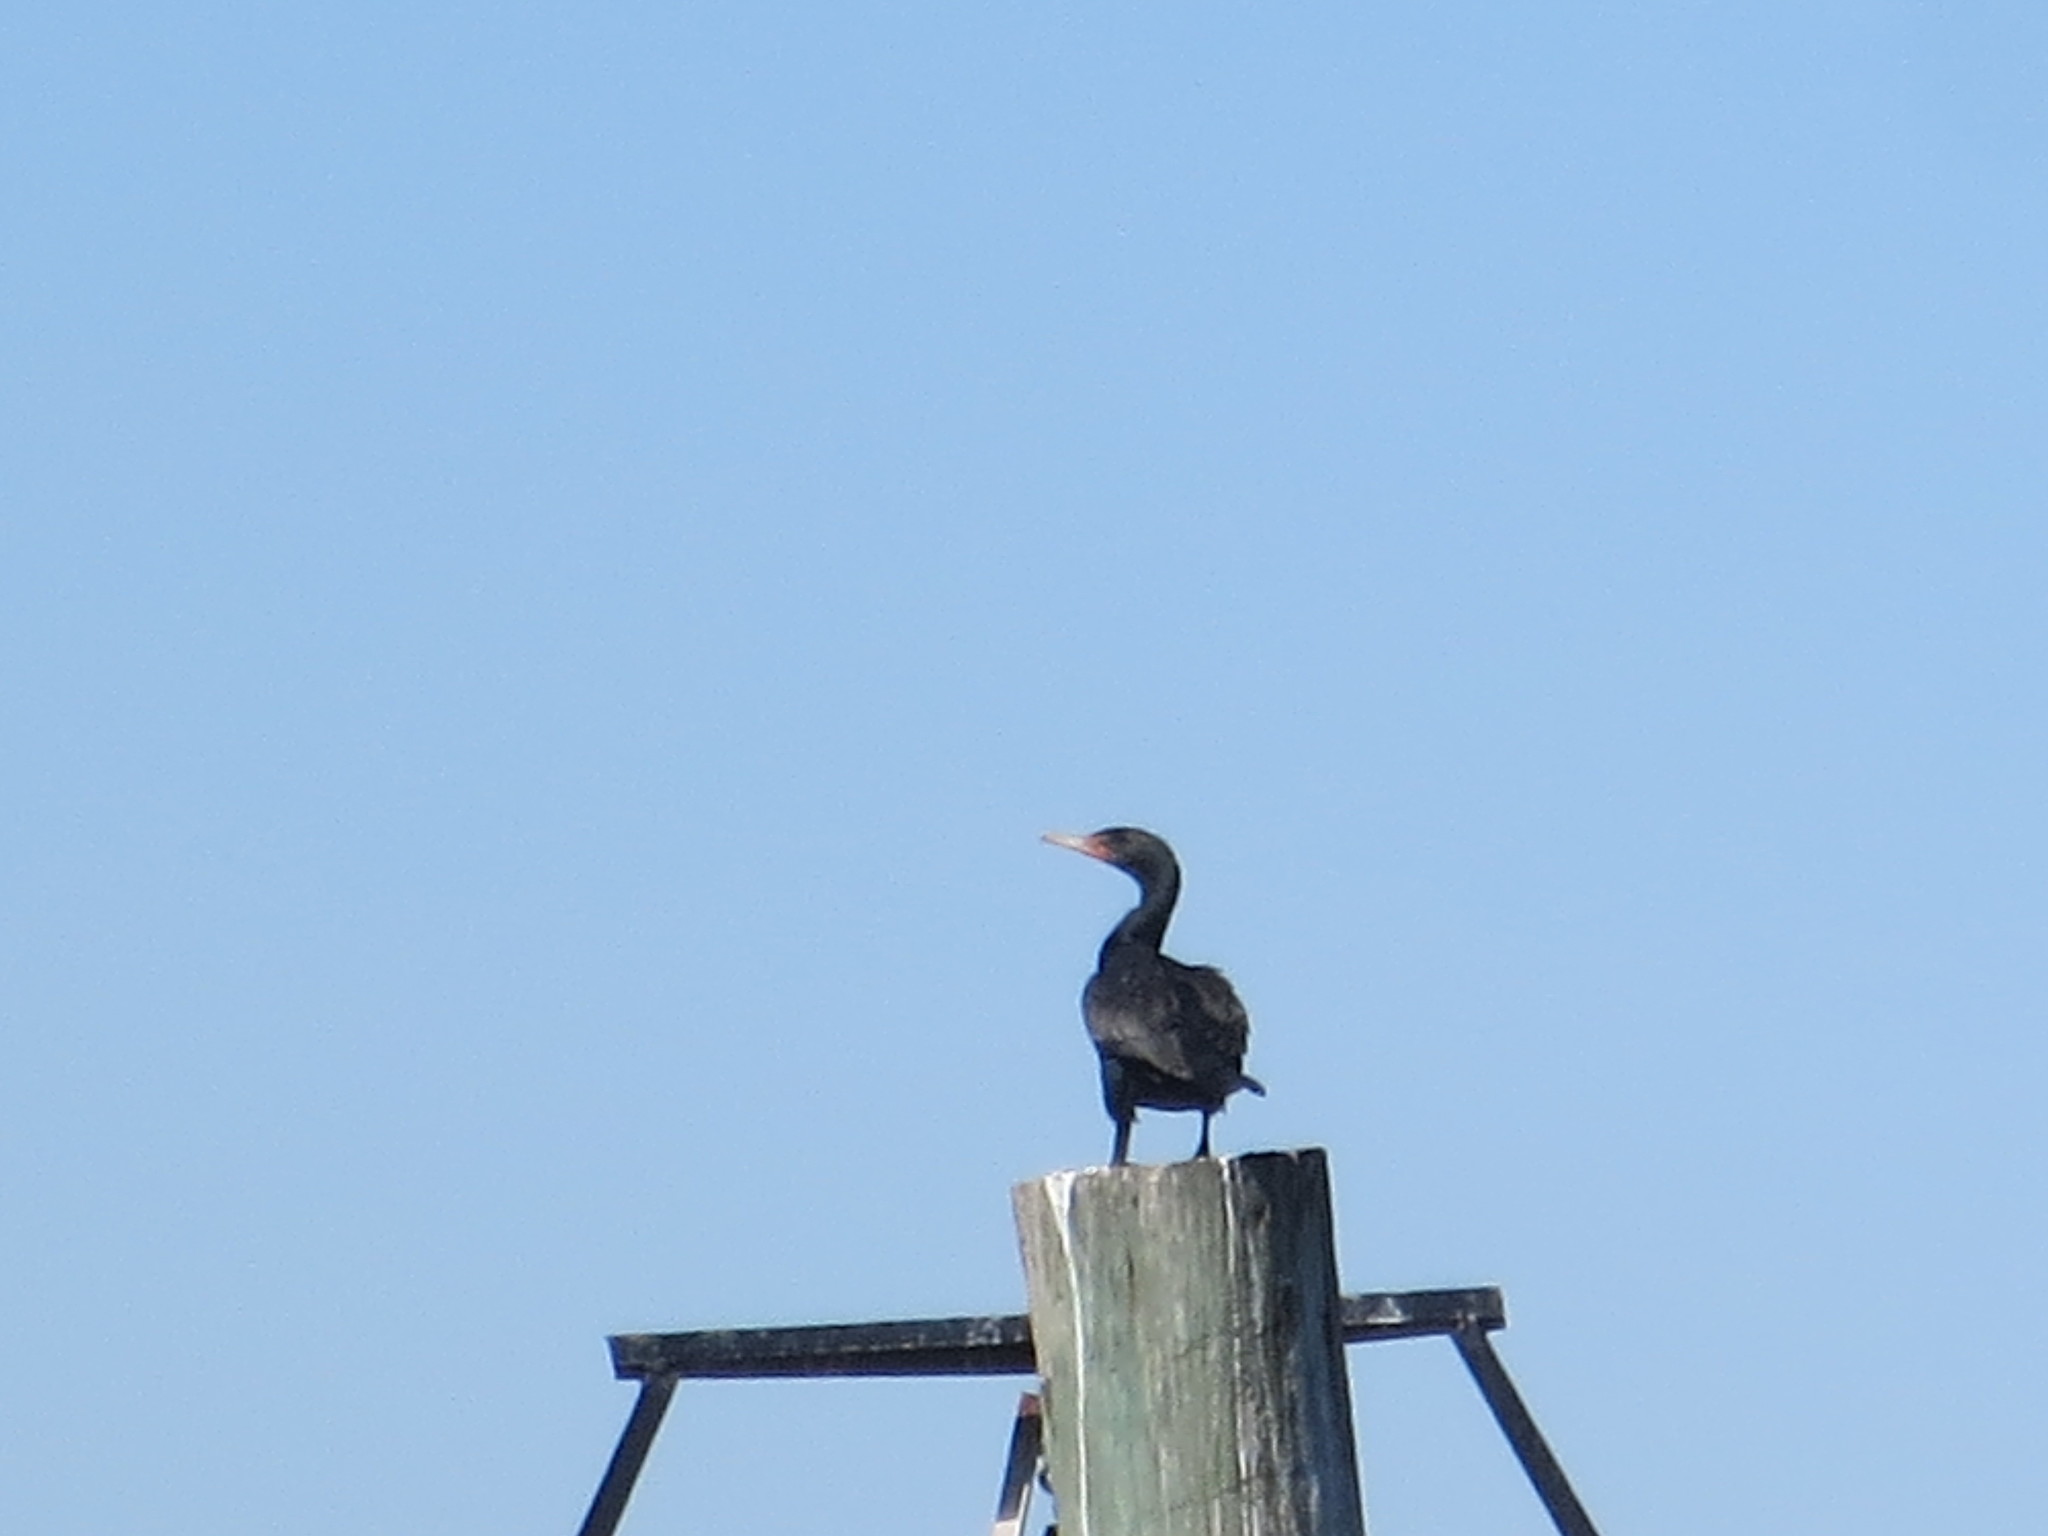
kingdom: Animalia
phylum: Chordata
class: Aves
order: Suliformes
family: Phalacrocoracidae
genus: Phalacrocorax
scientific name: Phalacrocorax auritus
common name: Double-crested cormorant
